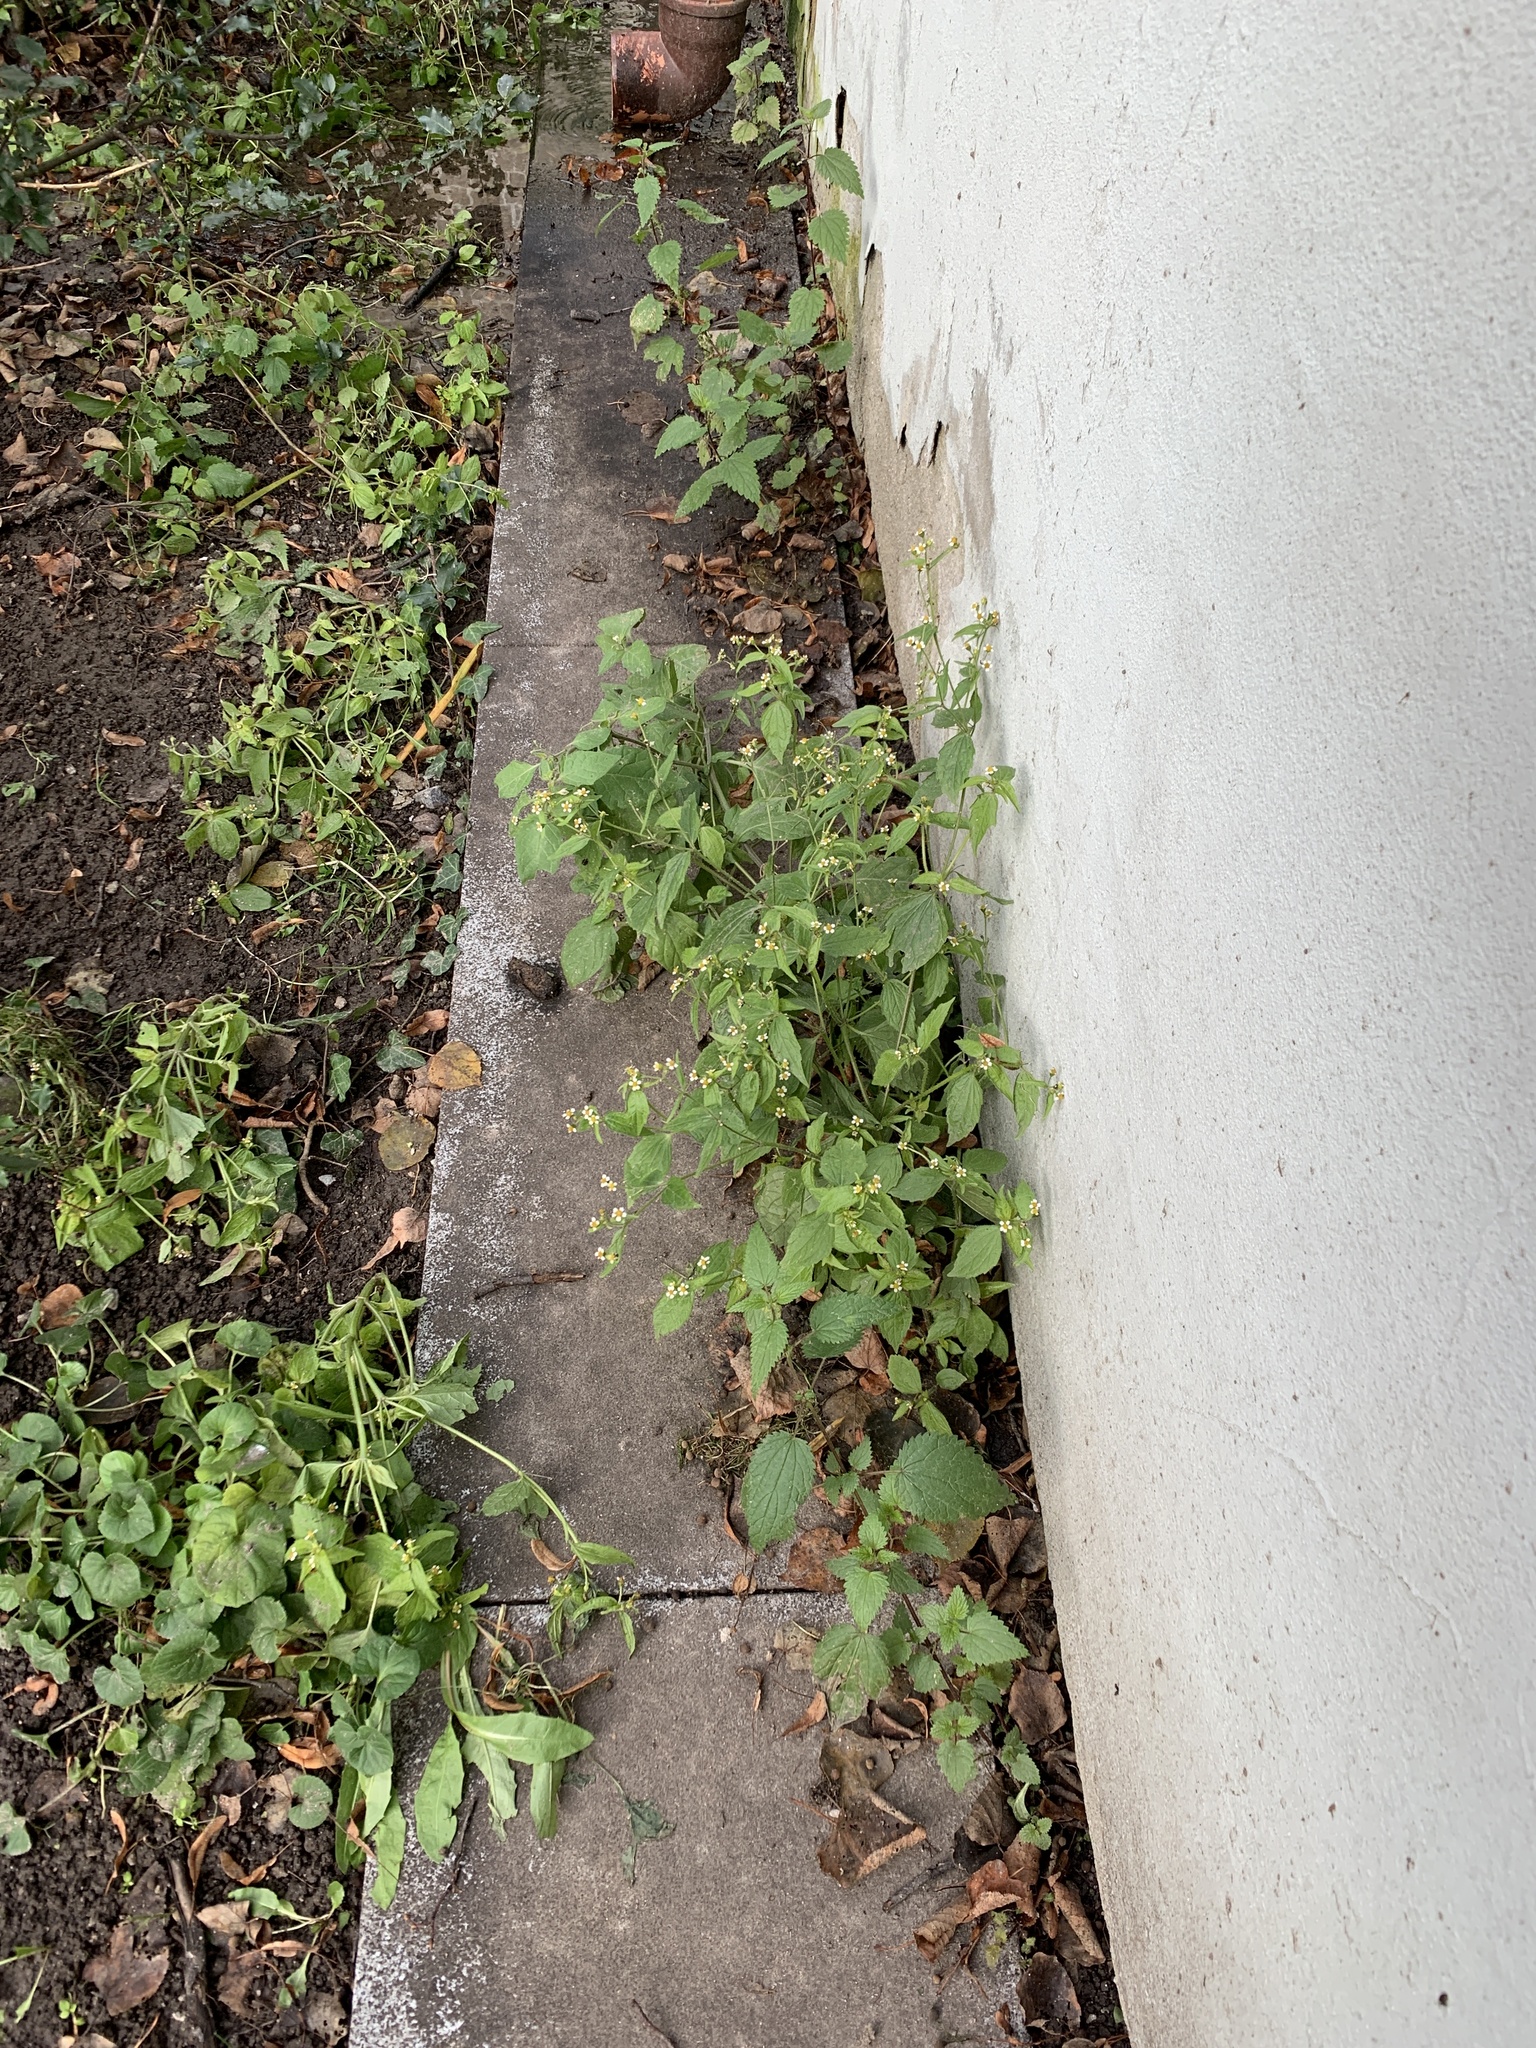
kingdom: Plantae
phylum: Tracheophyta
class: Magnoliopsida
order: Asterales
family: Asteraceae
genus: Galinsoga
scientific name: Galinsoga quadriradiata
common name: Shaggy soldier
